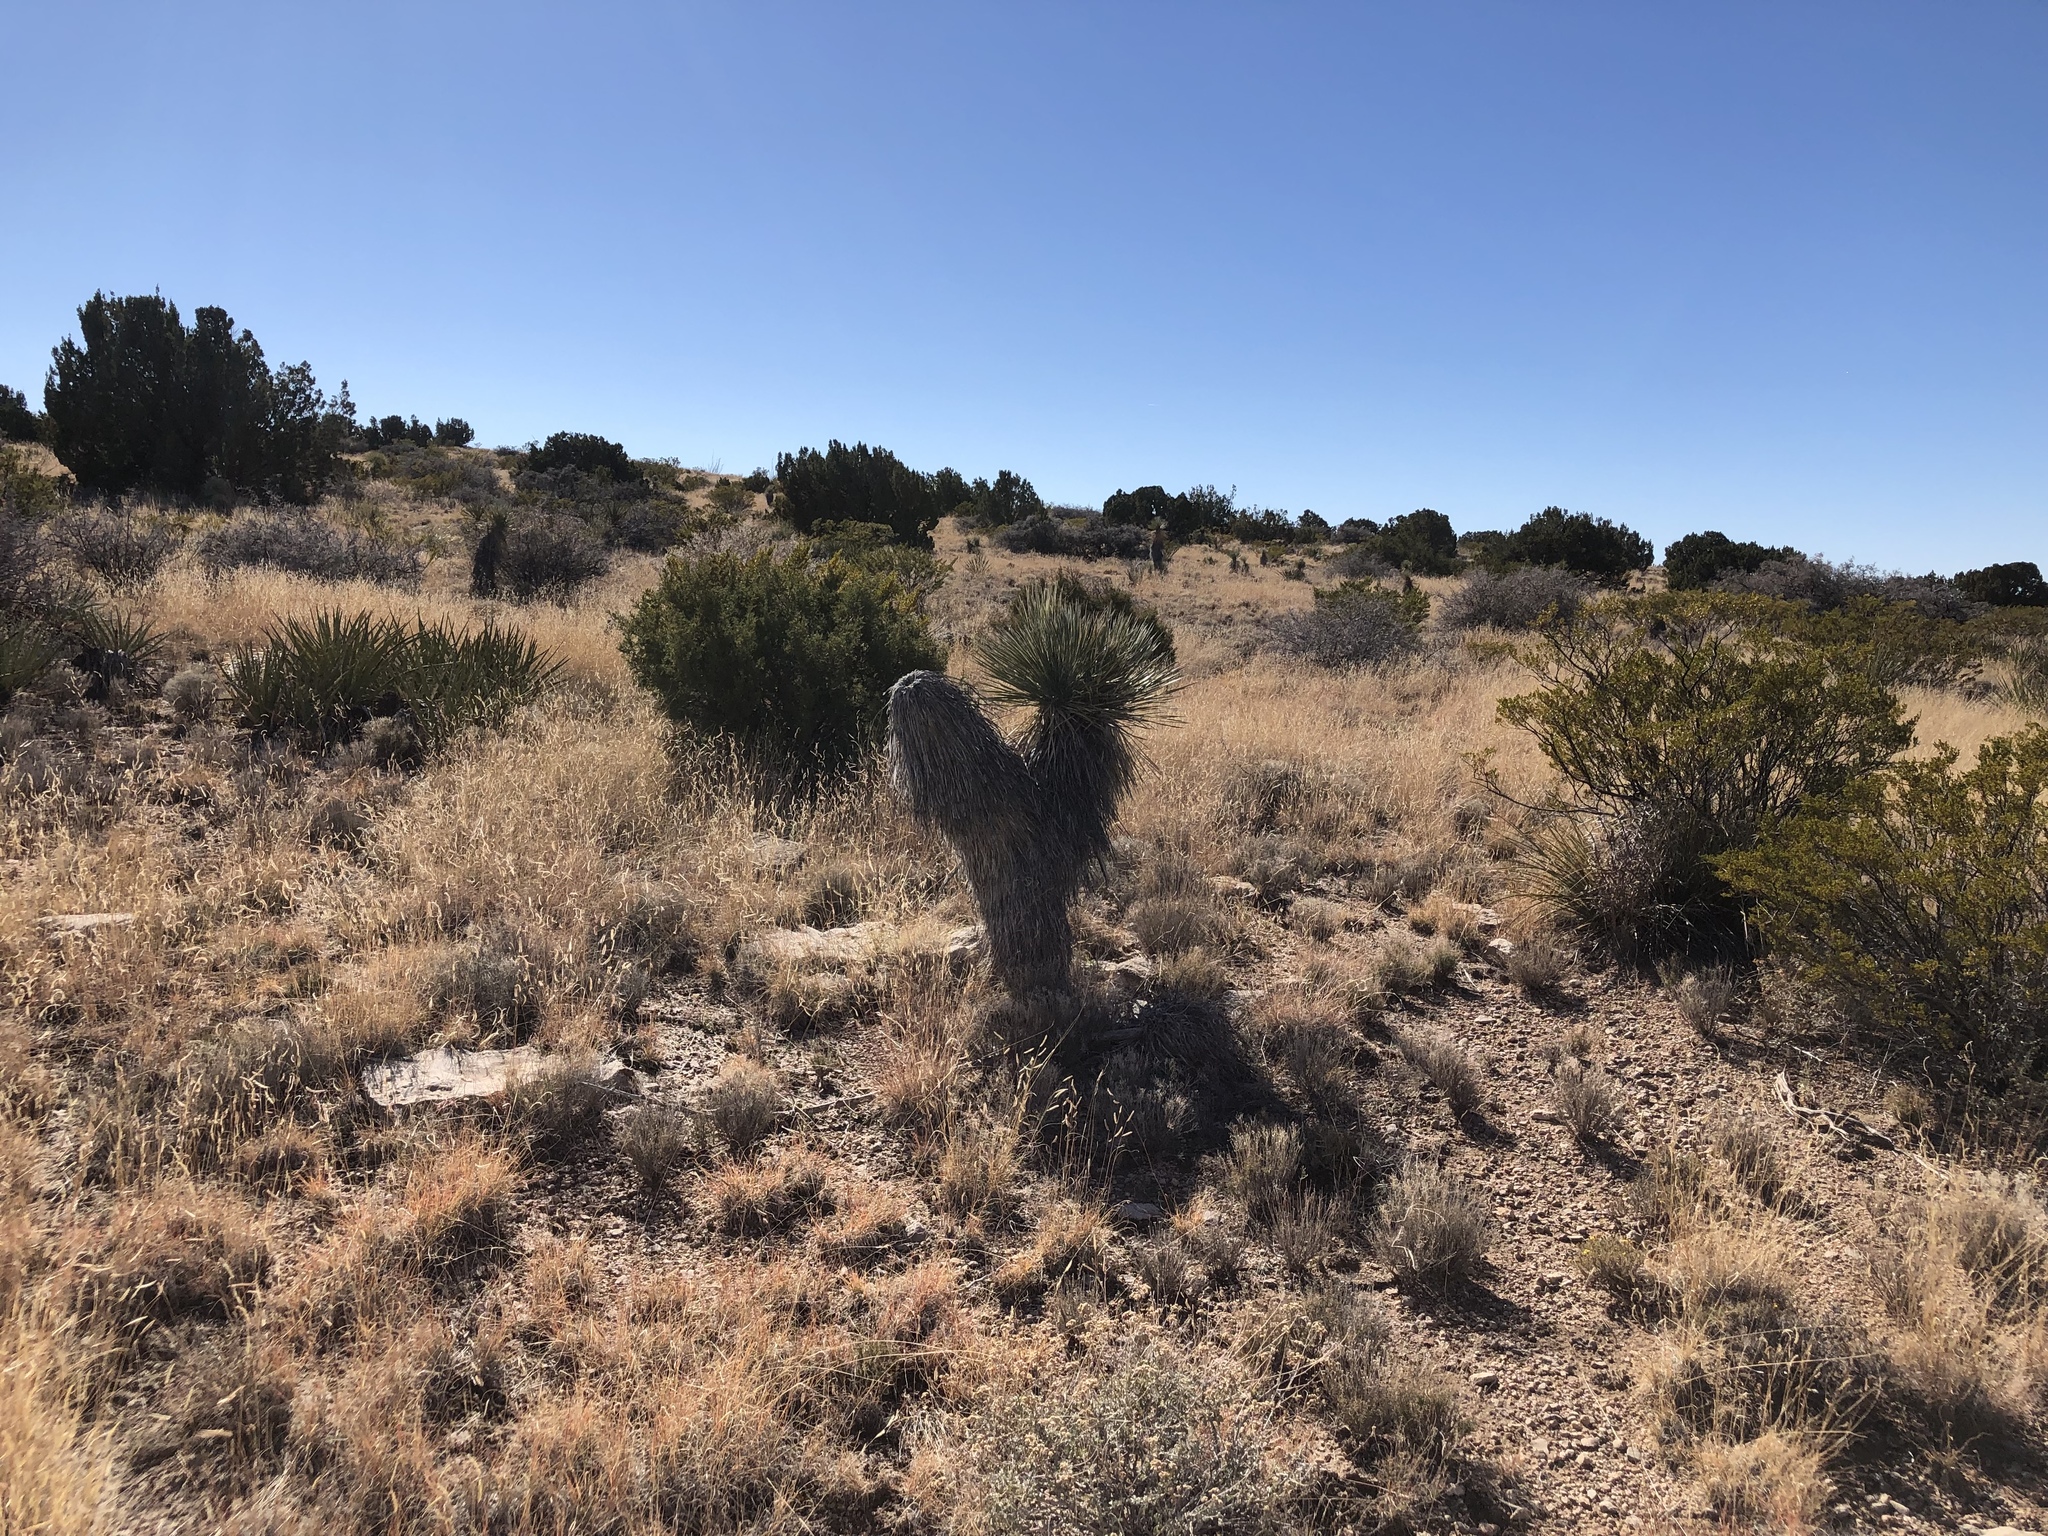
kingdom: Plantae
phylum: Tracheophyta
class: Liliopsida
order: Asparagales
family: Asparagaceae
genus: Yucca
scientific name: Yucca elata
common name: Palmella
